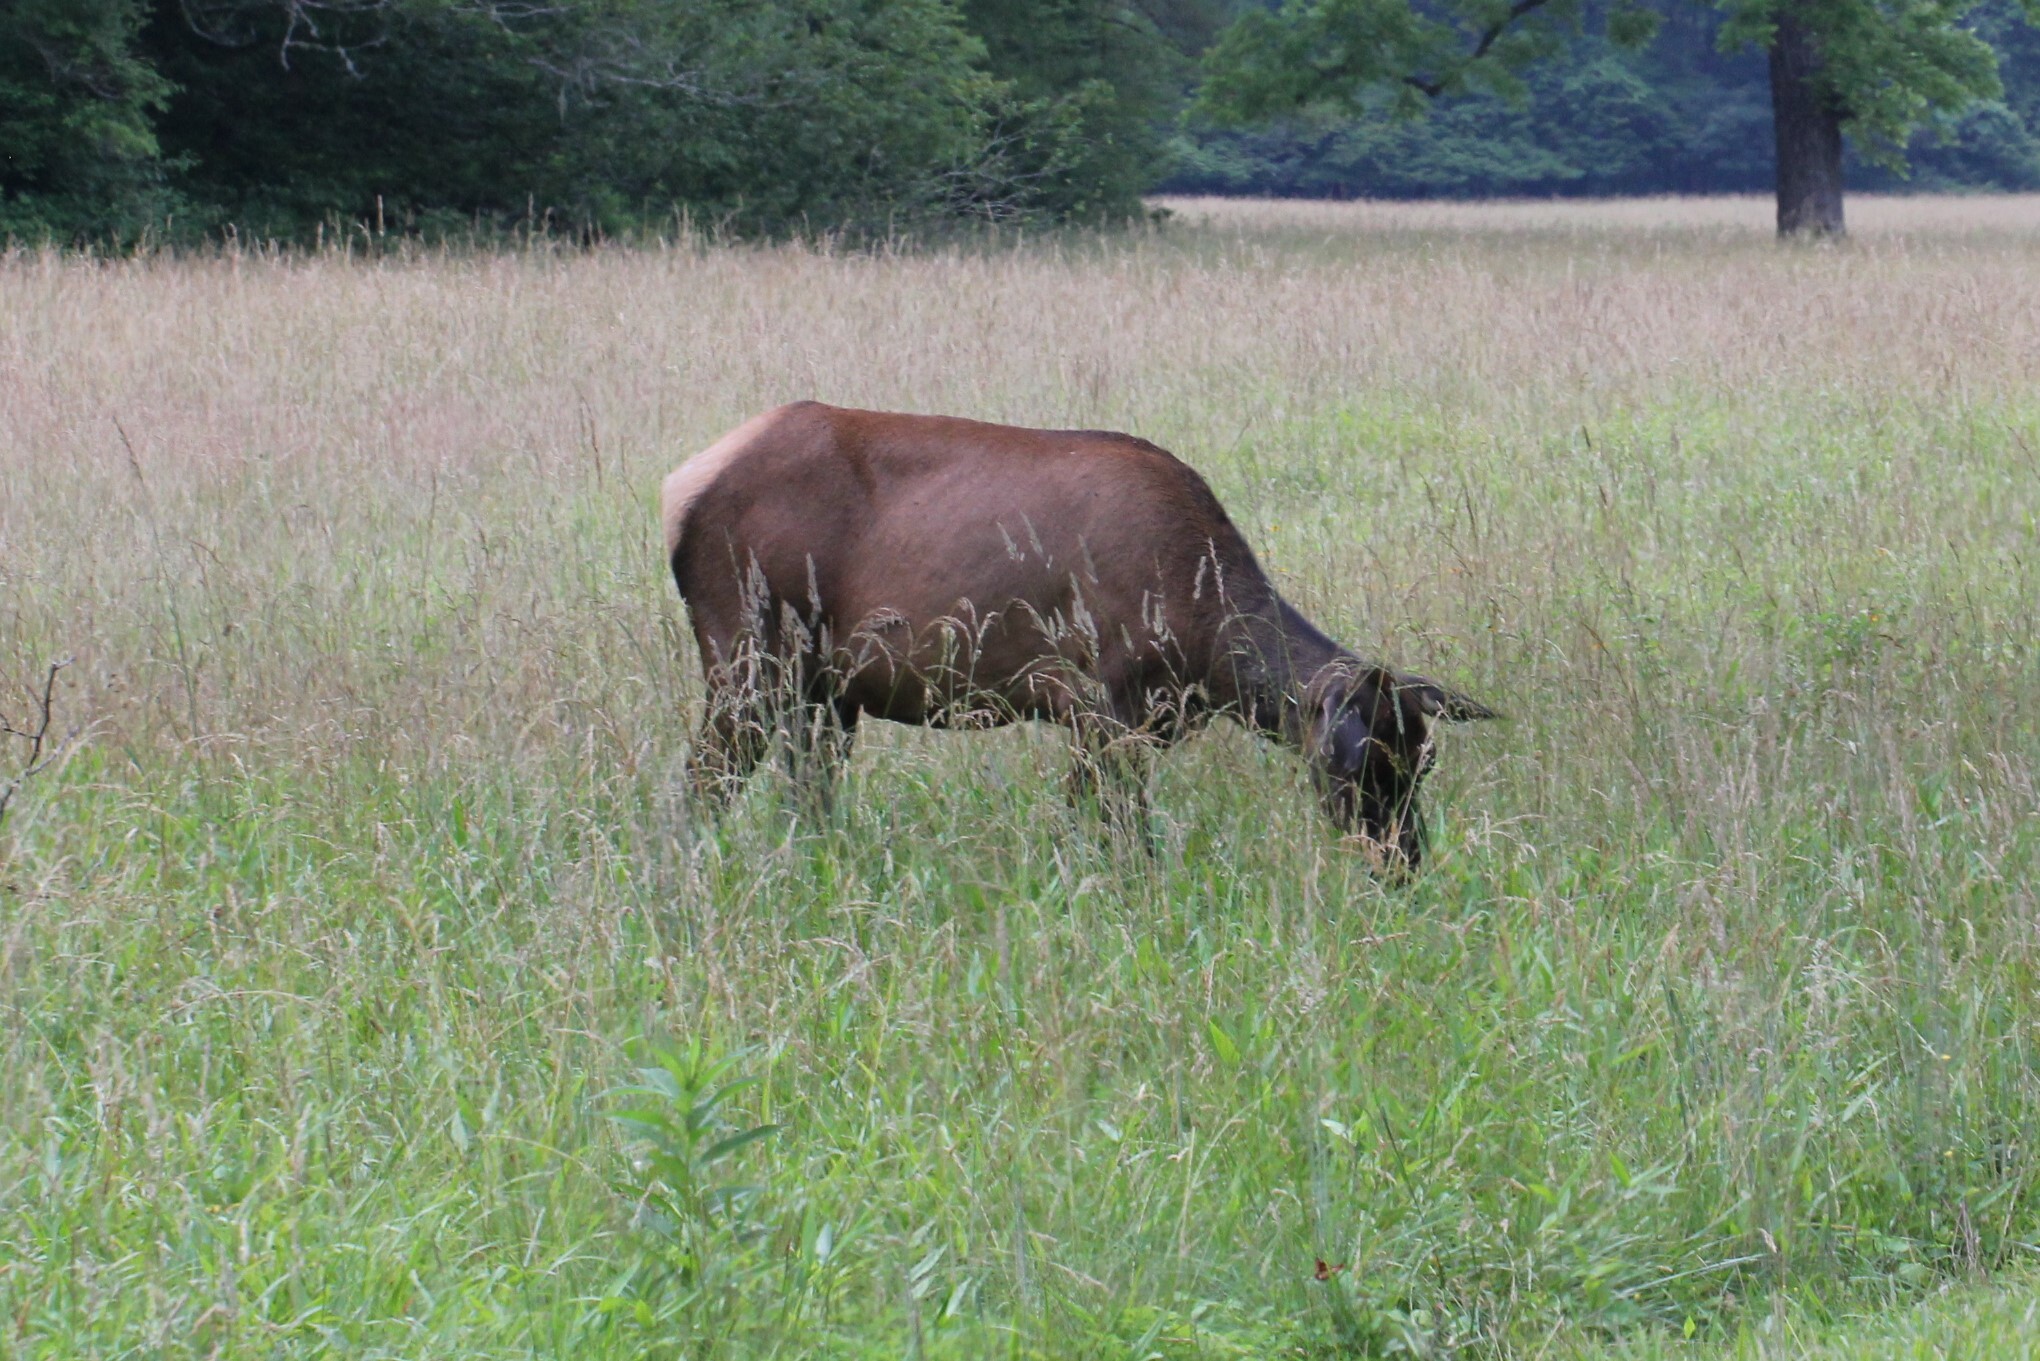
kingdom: Animalia
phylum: Chordata
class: Mammalia
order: Artiodactyla
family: Cervidae
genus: Cervus
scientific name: Cervus elaphus
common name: Red deer
